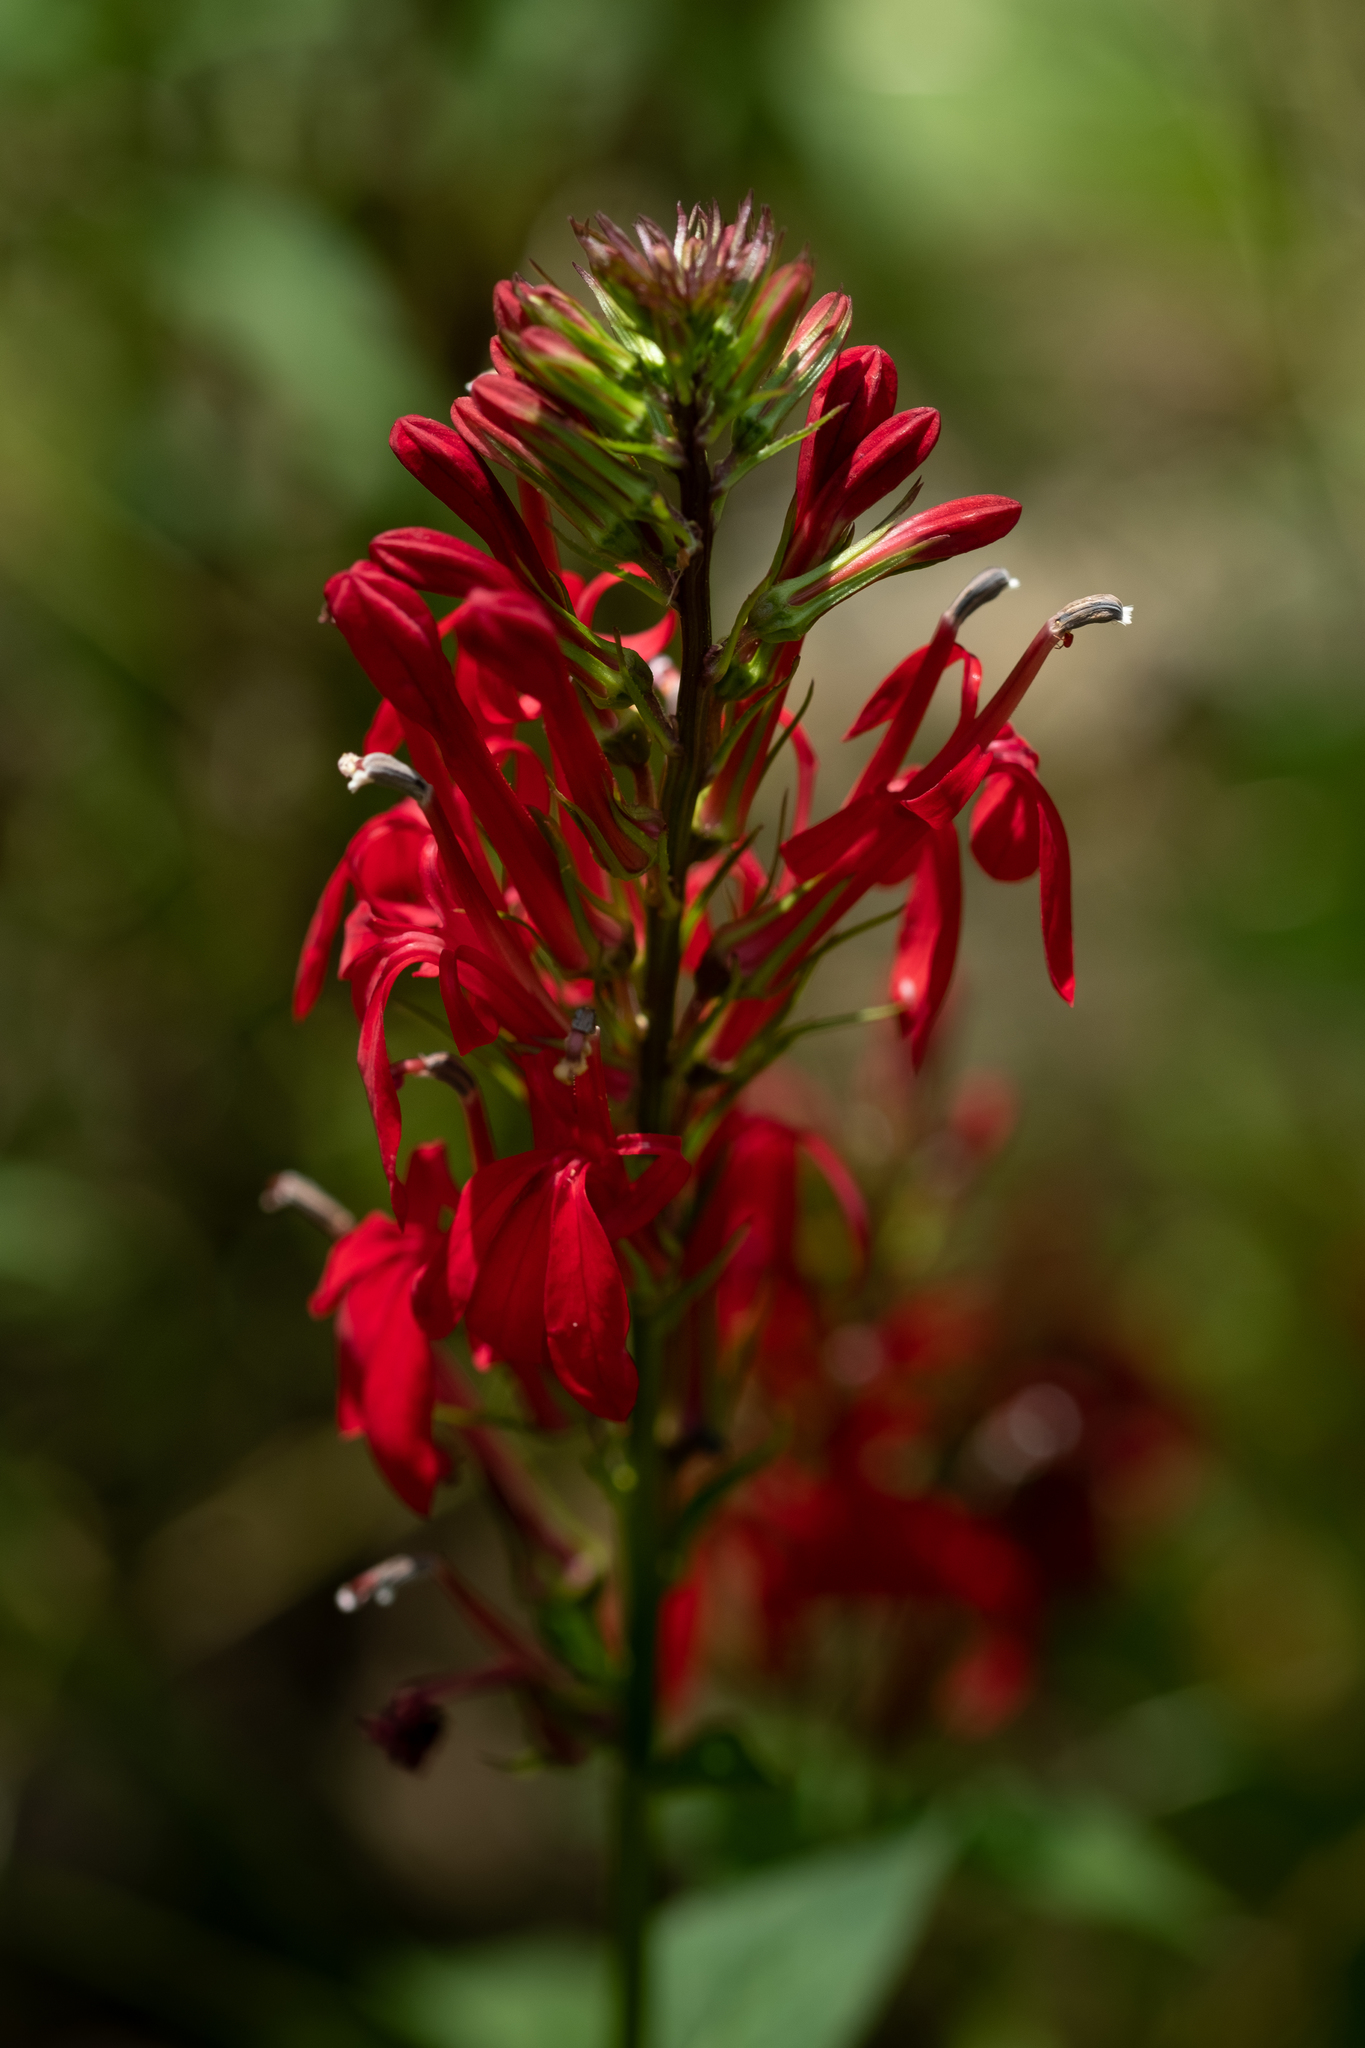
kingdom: Plantae
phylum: Tracheophyta
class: Magnoliopsida
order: Asterales
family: Campanulaceae
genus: Lobelia
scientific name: Lobelia cardinalis
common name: Cardinal flower
